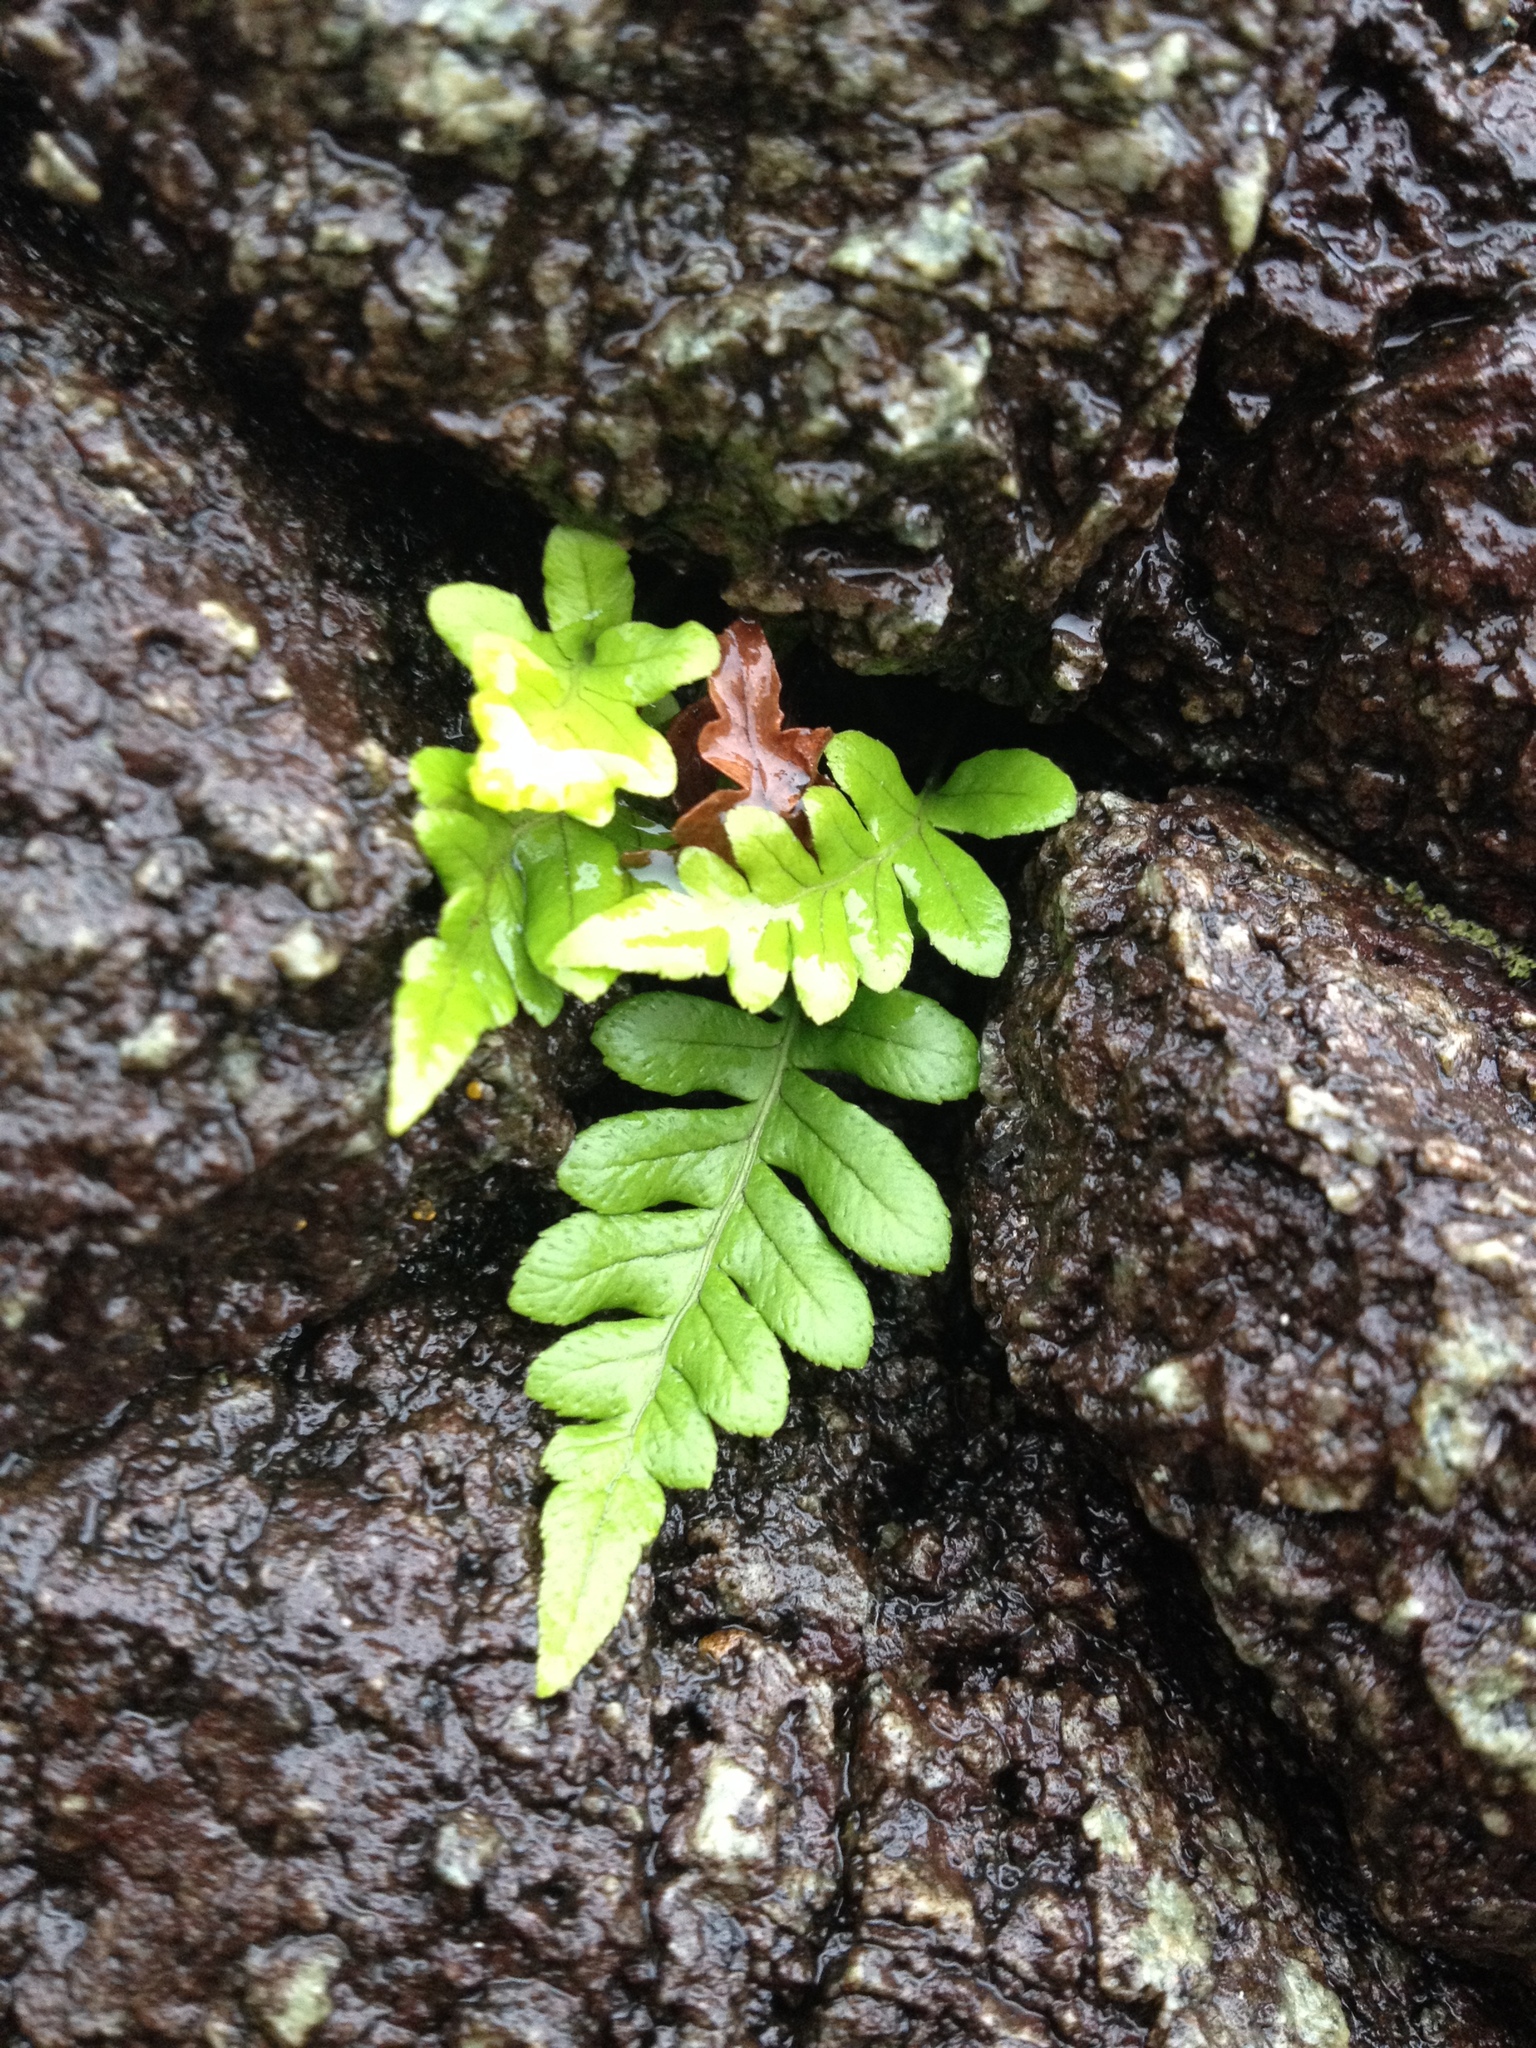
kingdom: Plantae
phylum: Tracheophyta
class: Polypodiopsida
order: Polypodiales
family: Polypodiaceae
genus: Polypodium
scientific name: Polypodium glycyrrhiza
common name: Licorice fern
